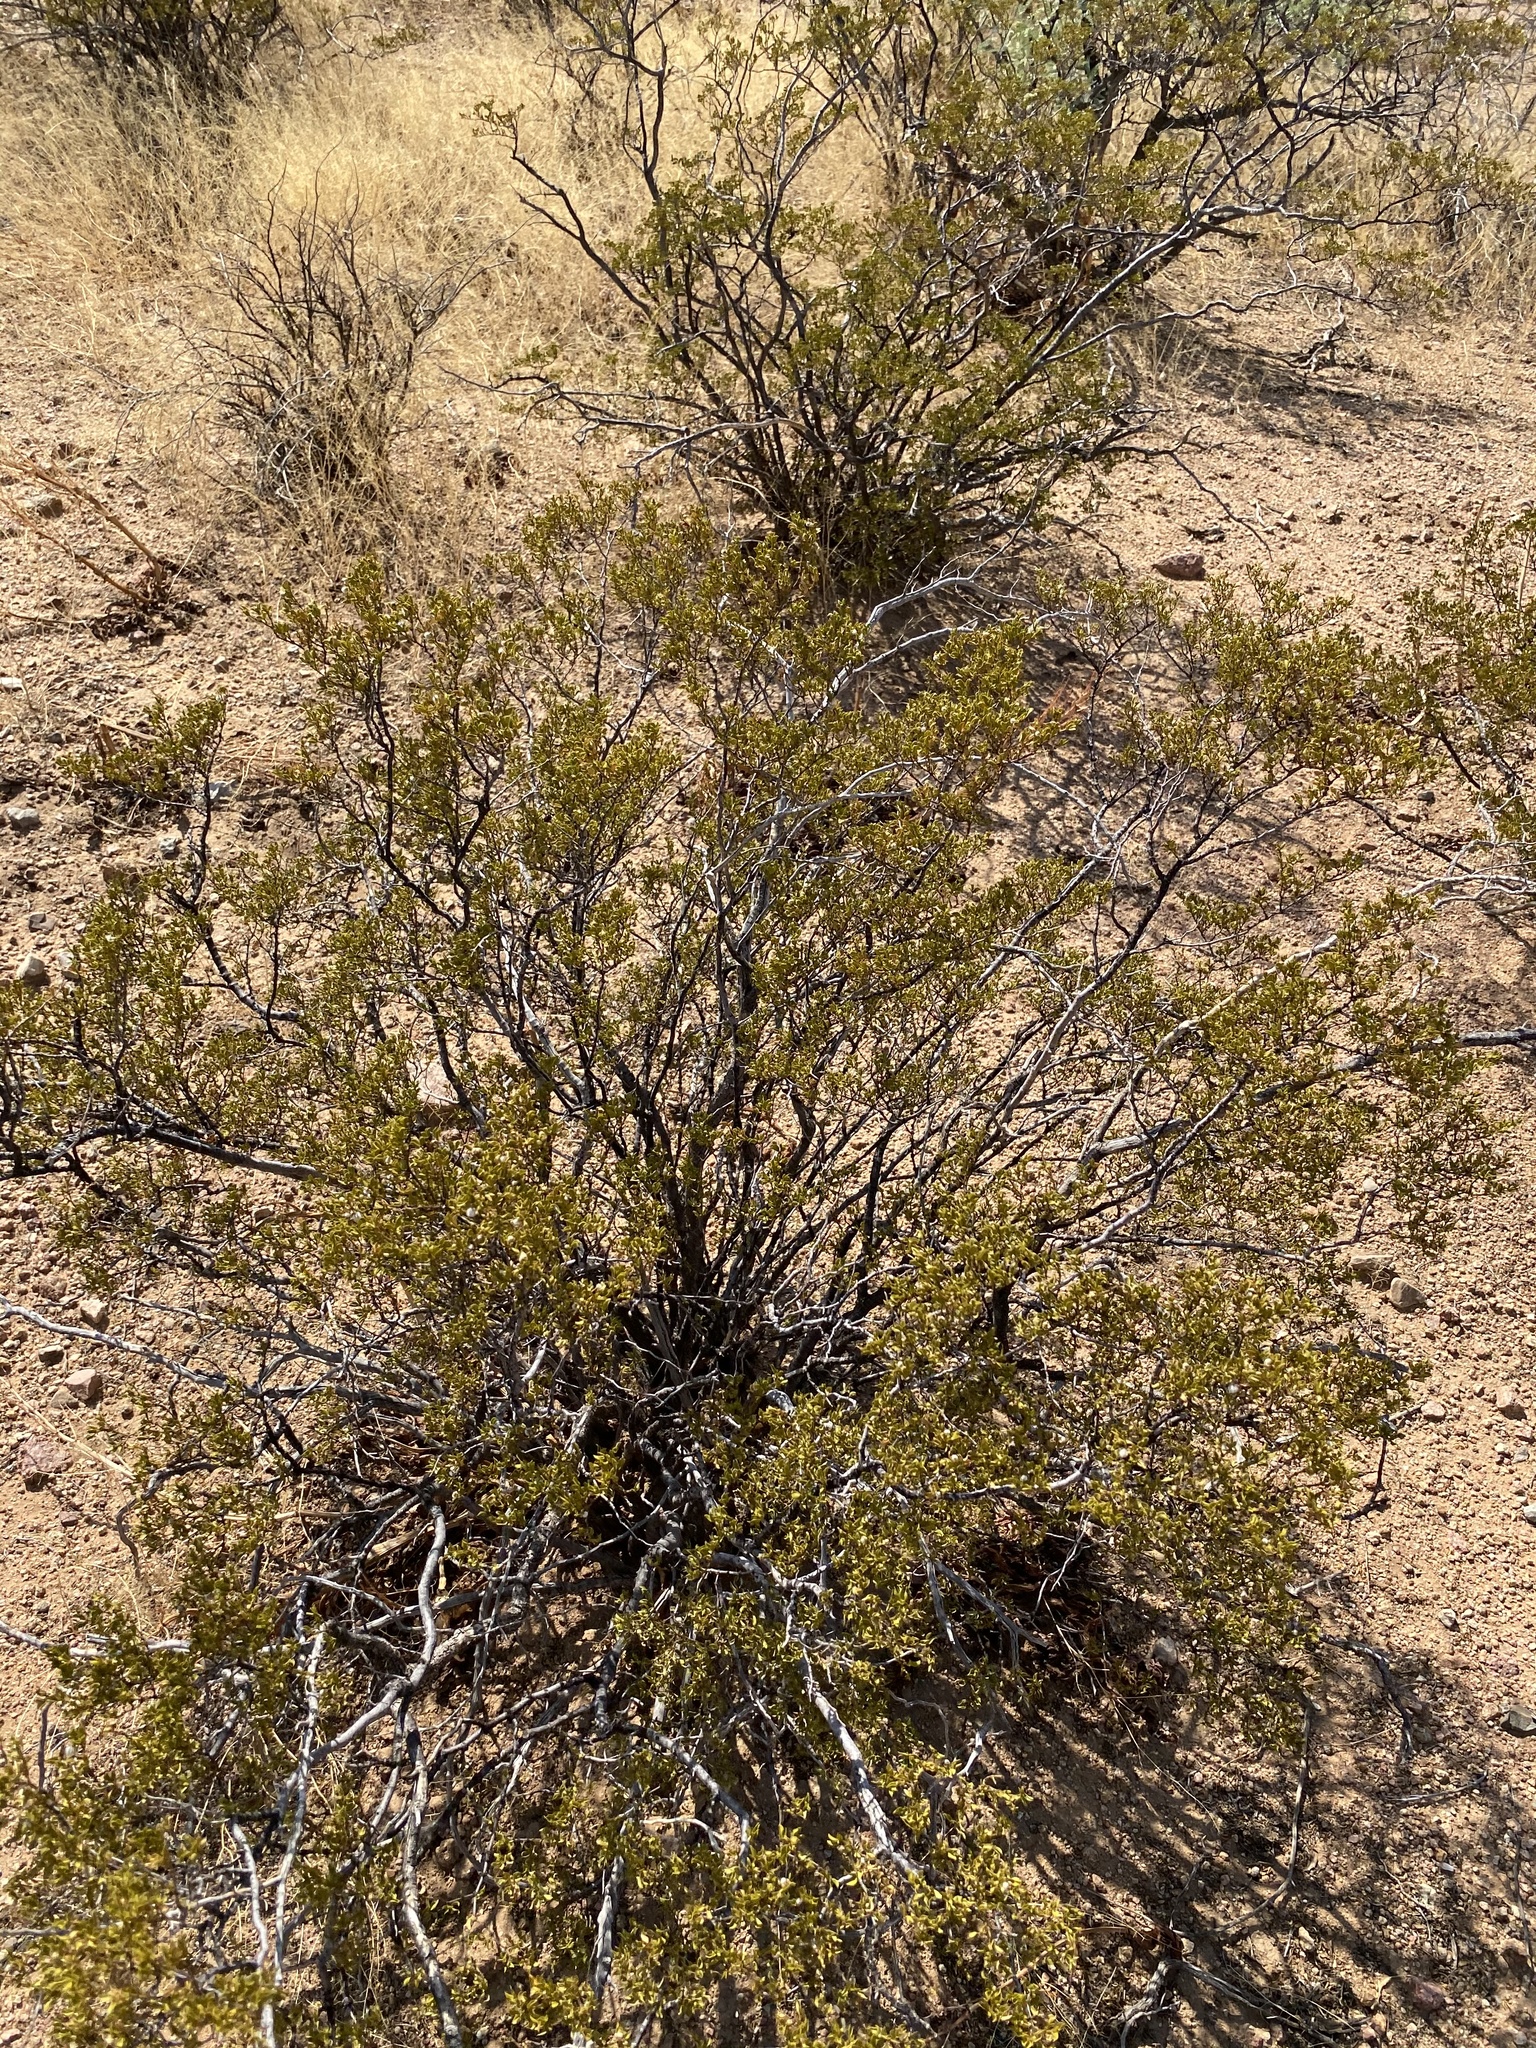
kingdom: Plantae
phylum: Tracheophyta
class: Magnoliopsida
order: Zygophyllales
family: Zygophyllaceae
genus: Larrea
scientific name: Larrea tridentata
